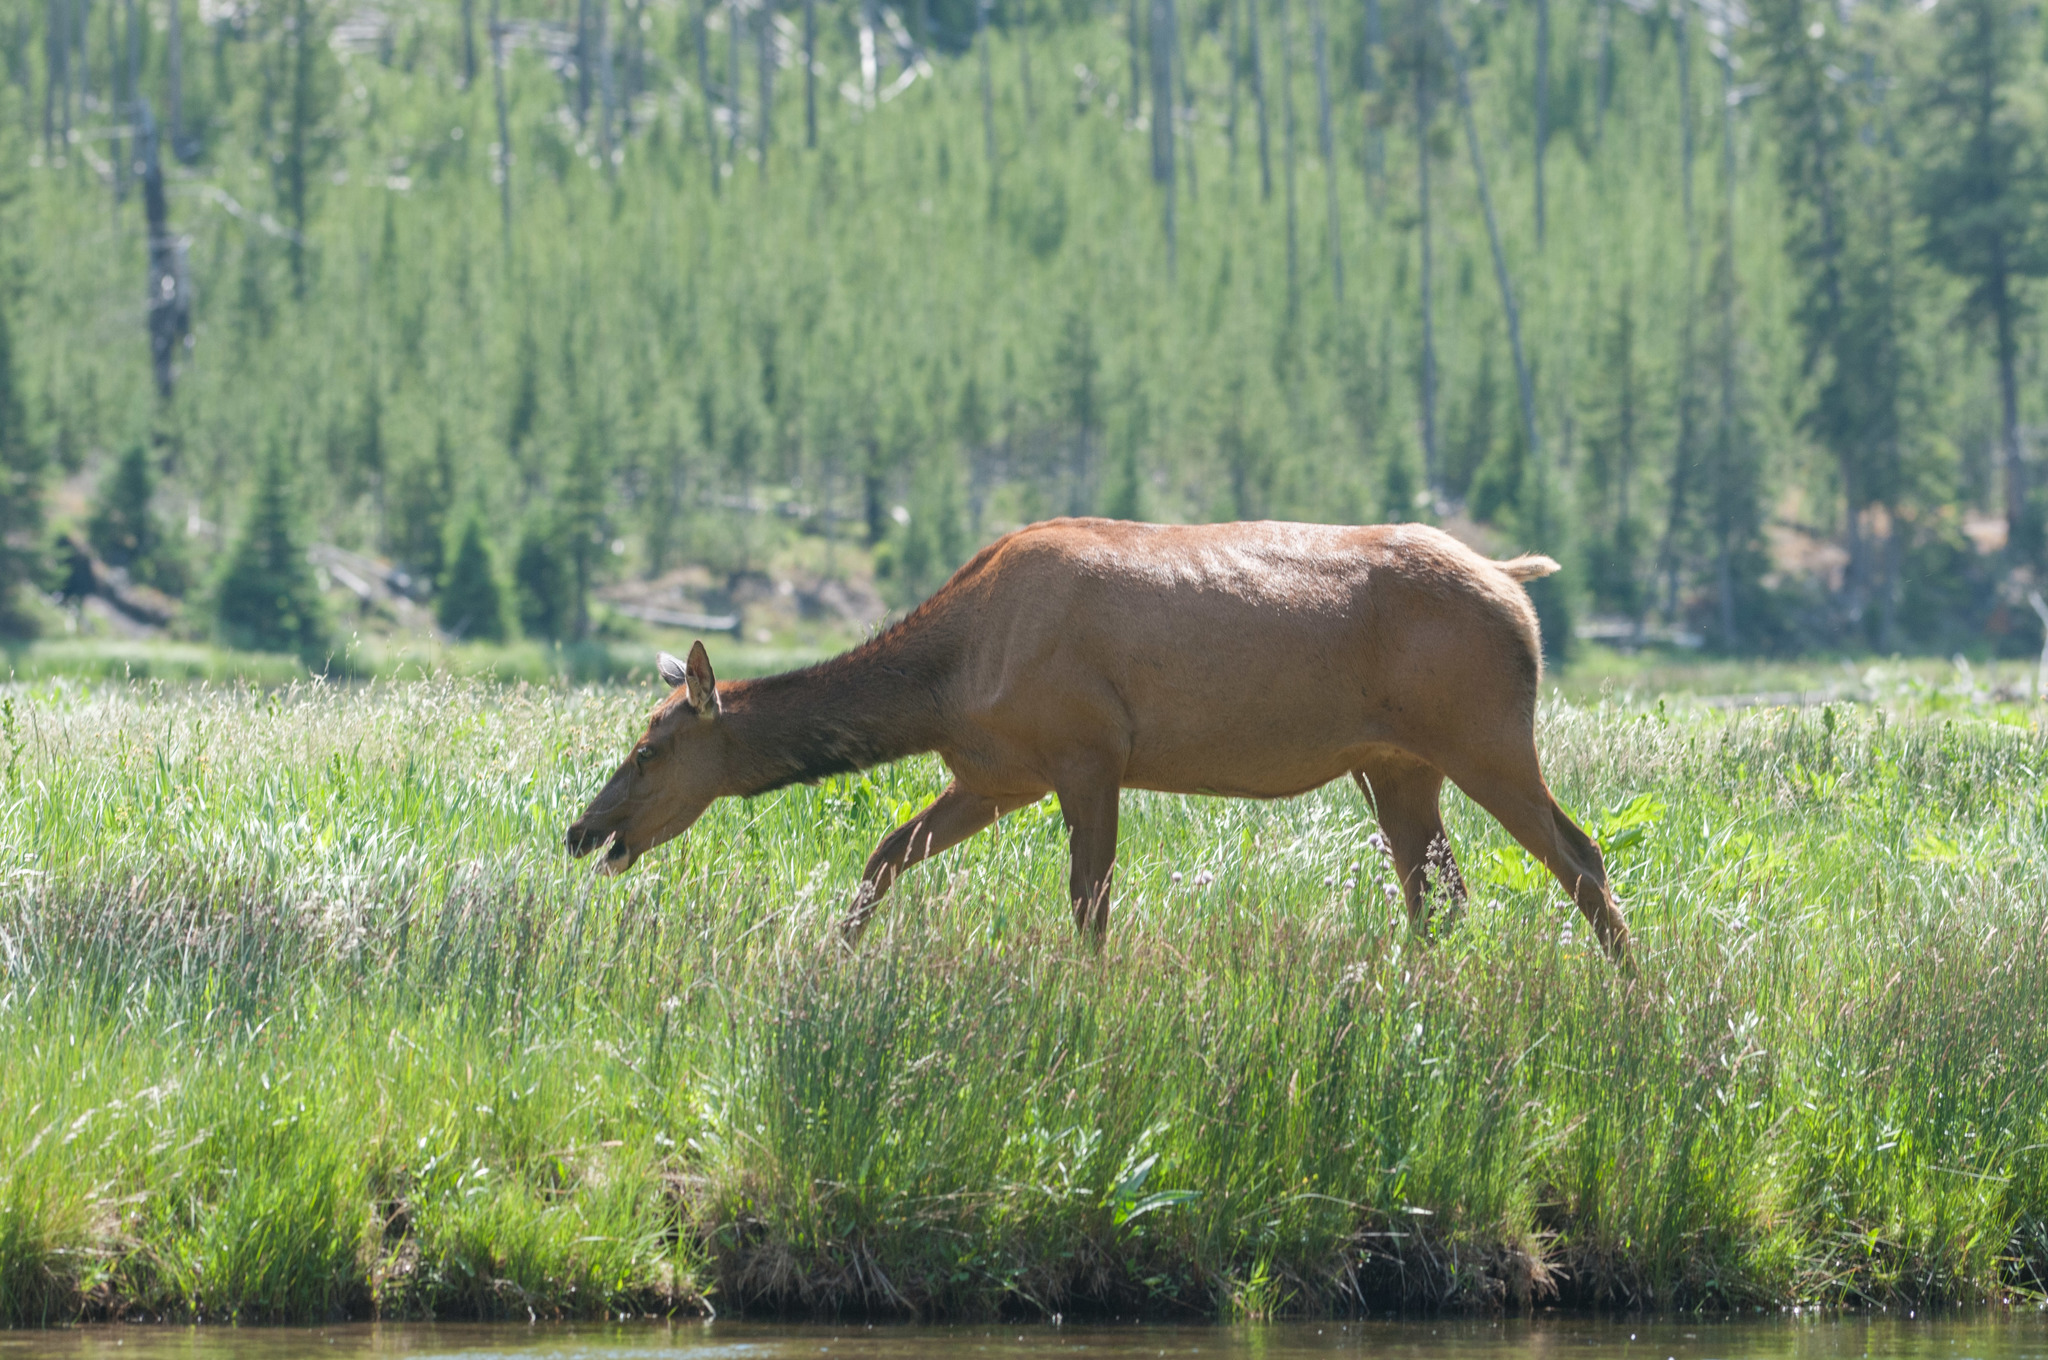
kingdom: Animalia
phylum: Chordata
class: Mammalia
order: Artiodactyla
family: Cervidae
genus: Cervus
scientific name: Cervus elaphus
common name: Red deer
